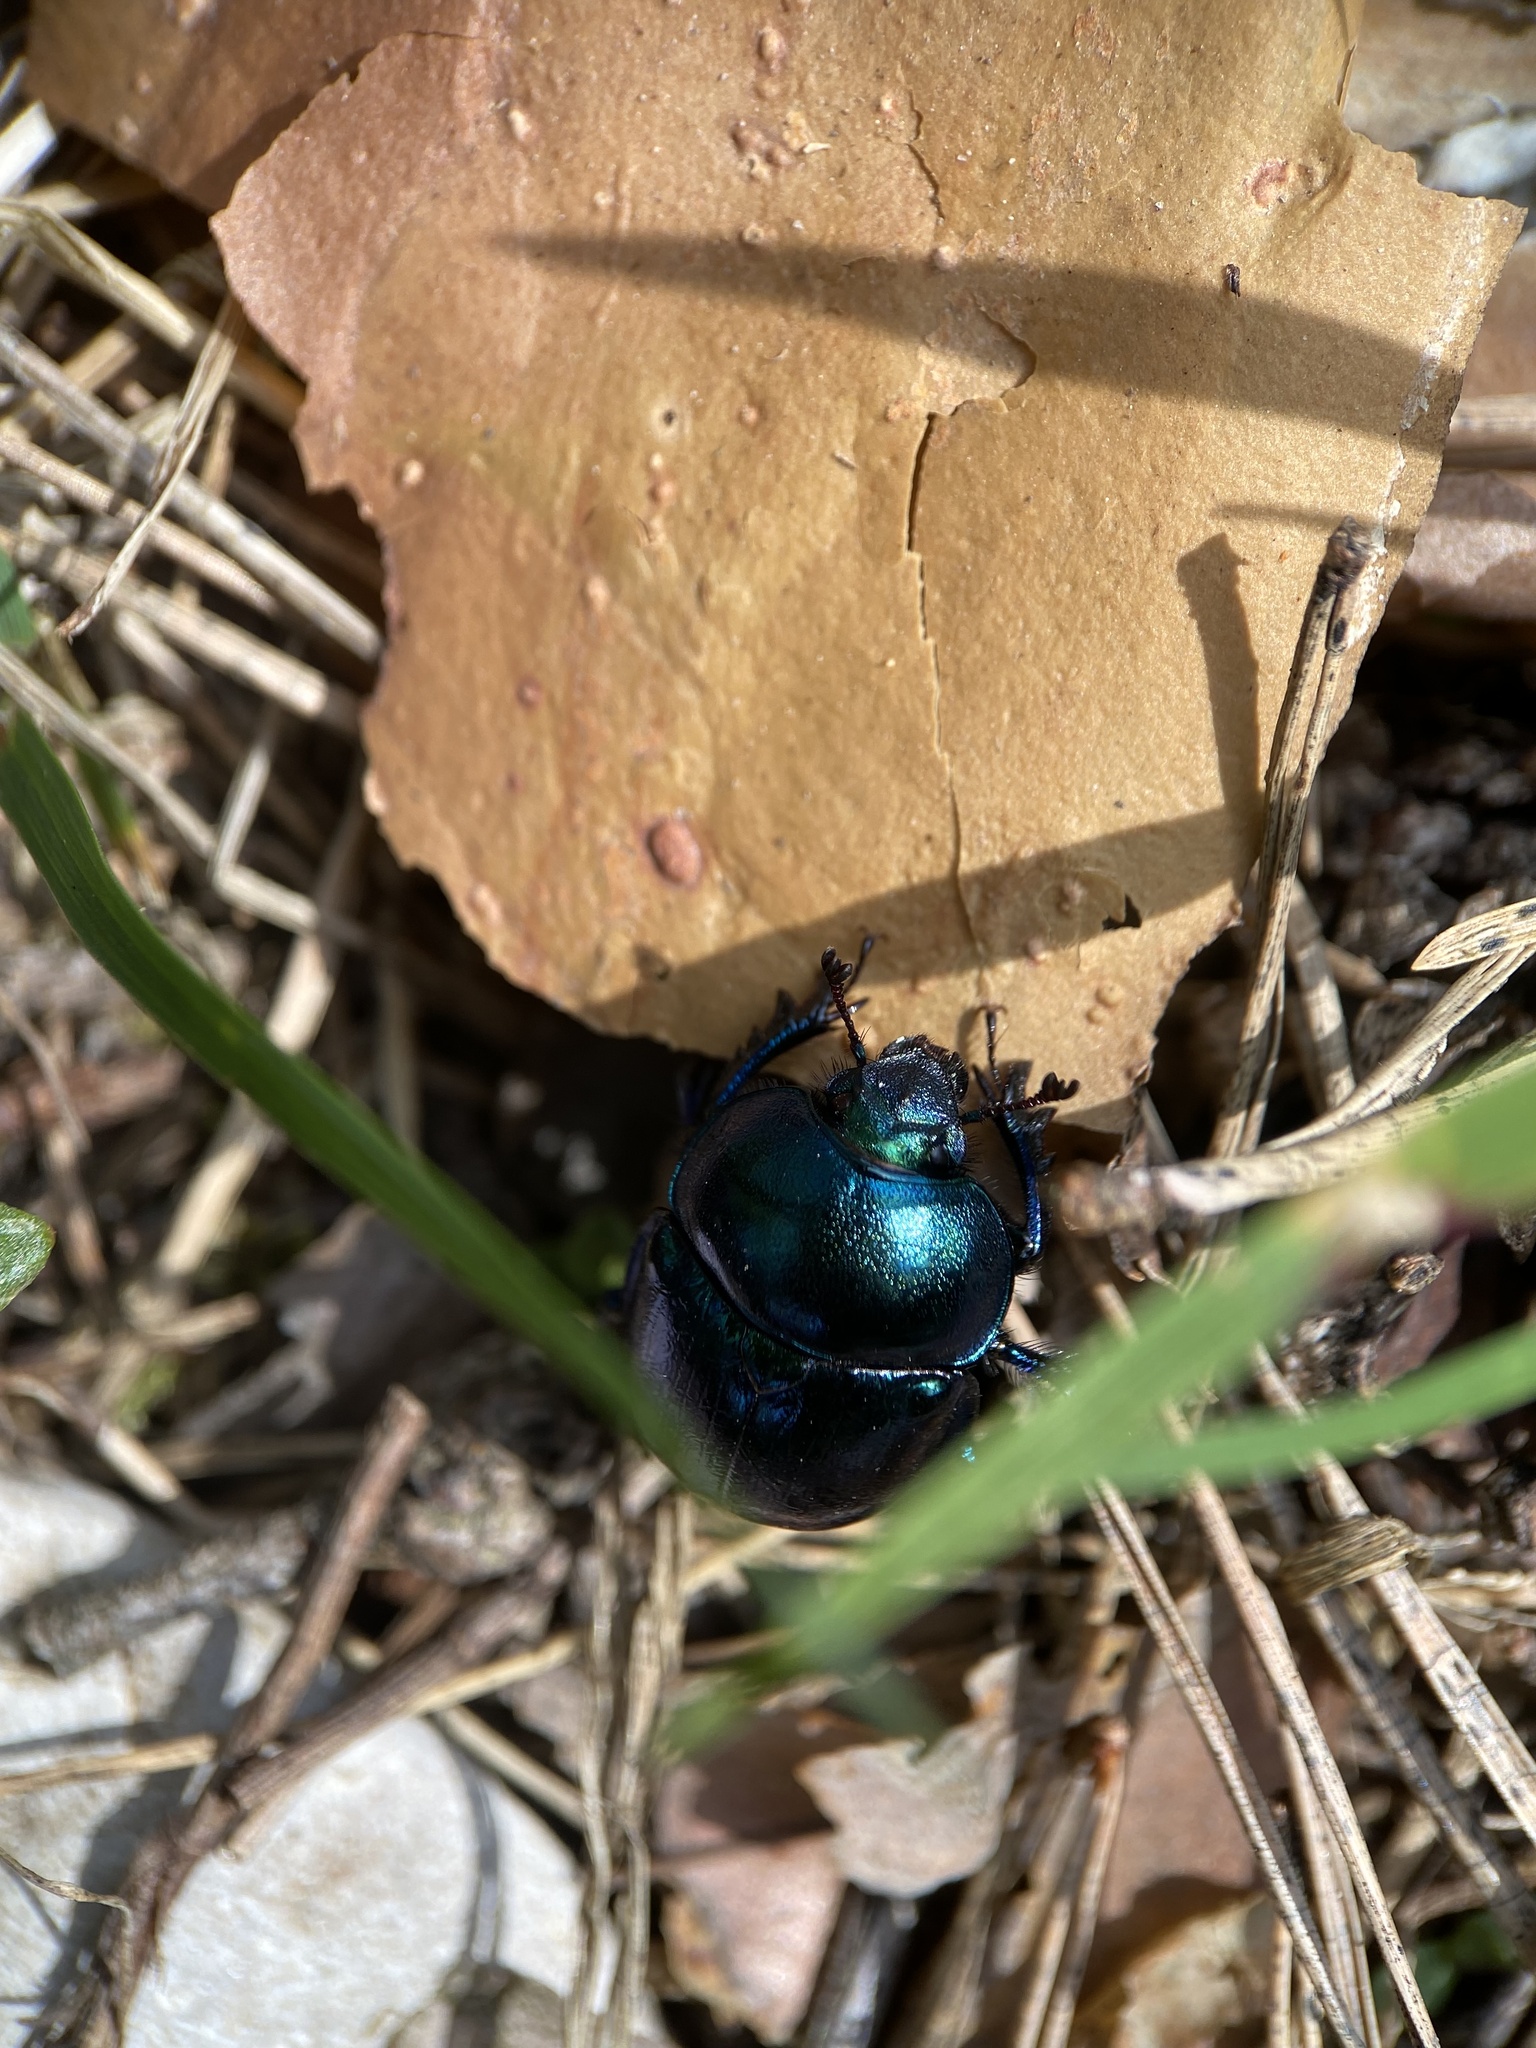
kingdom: Animalia
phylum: Arthropoda
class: Insecta
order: Coleoptera
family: Geotrupidae
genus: Trypocopris
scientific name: Trypocopris vernalis
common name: Spring dumbledor
